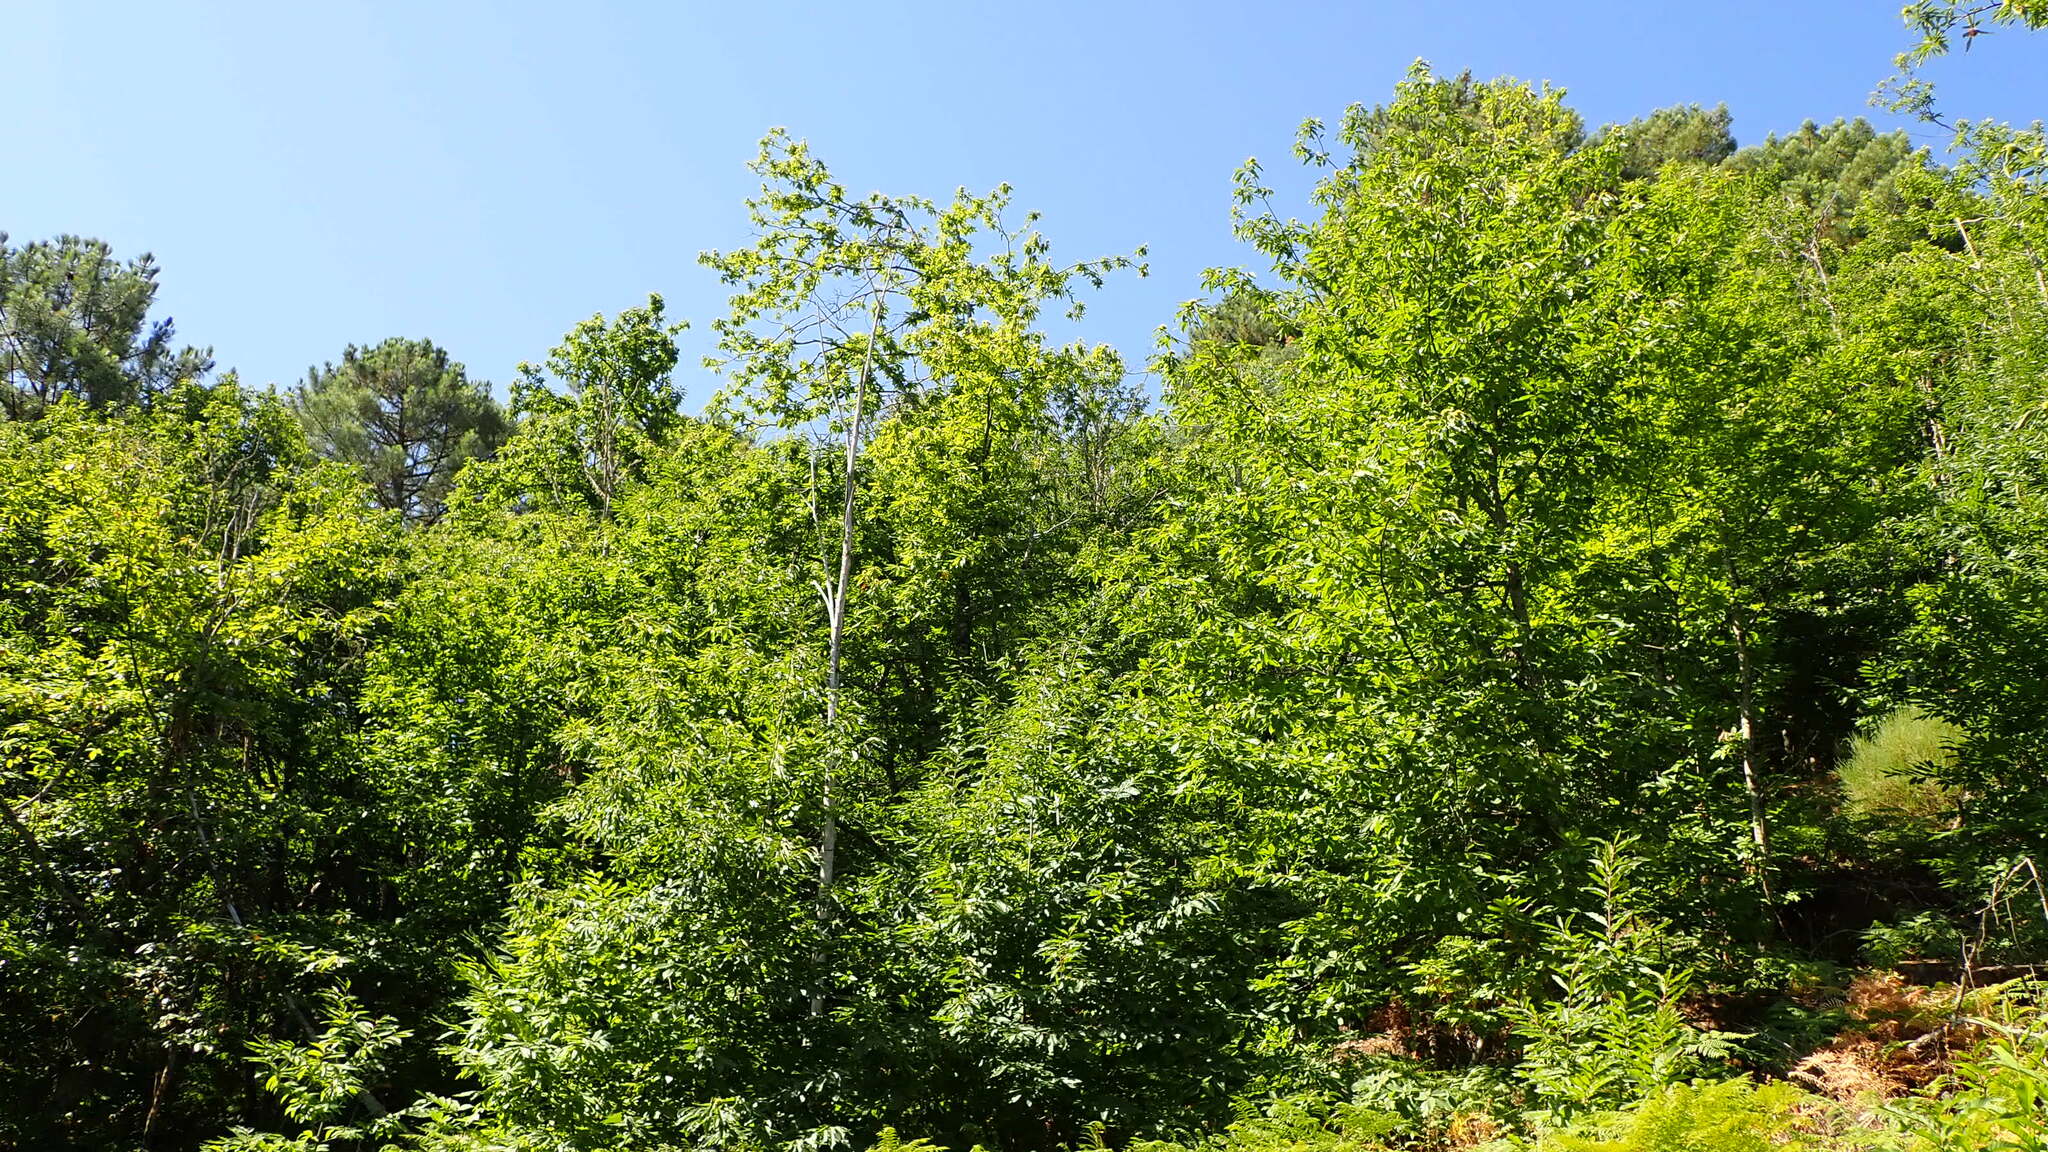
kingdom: Plantae
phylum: Tracheophyta
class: Magnoliopsida
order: Fagales
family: Fagaceae
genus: Castanea
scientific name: Castanea sativa
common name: Sweet chestnut
